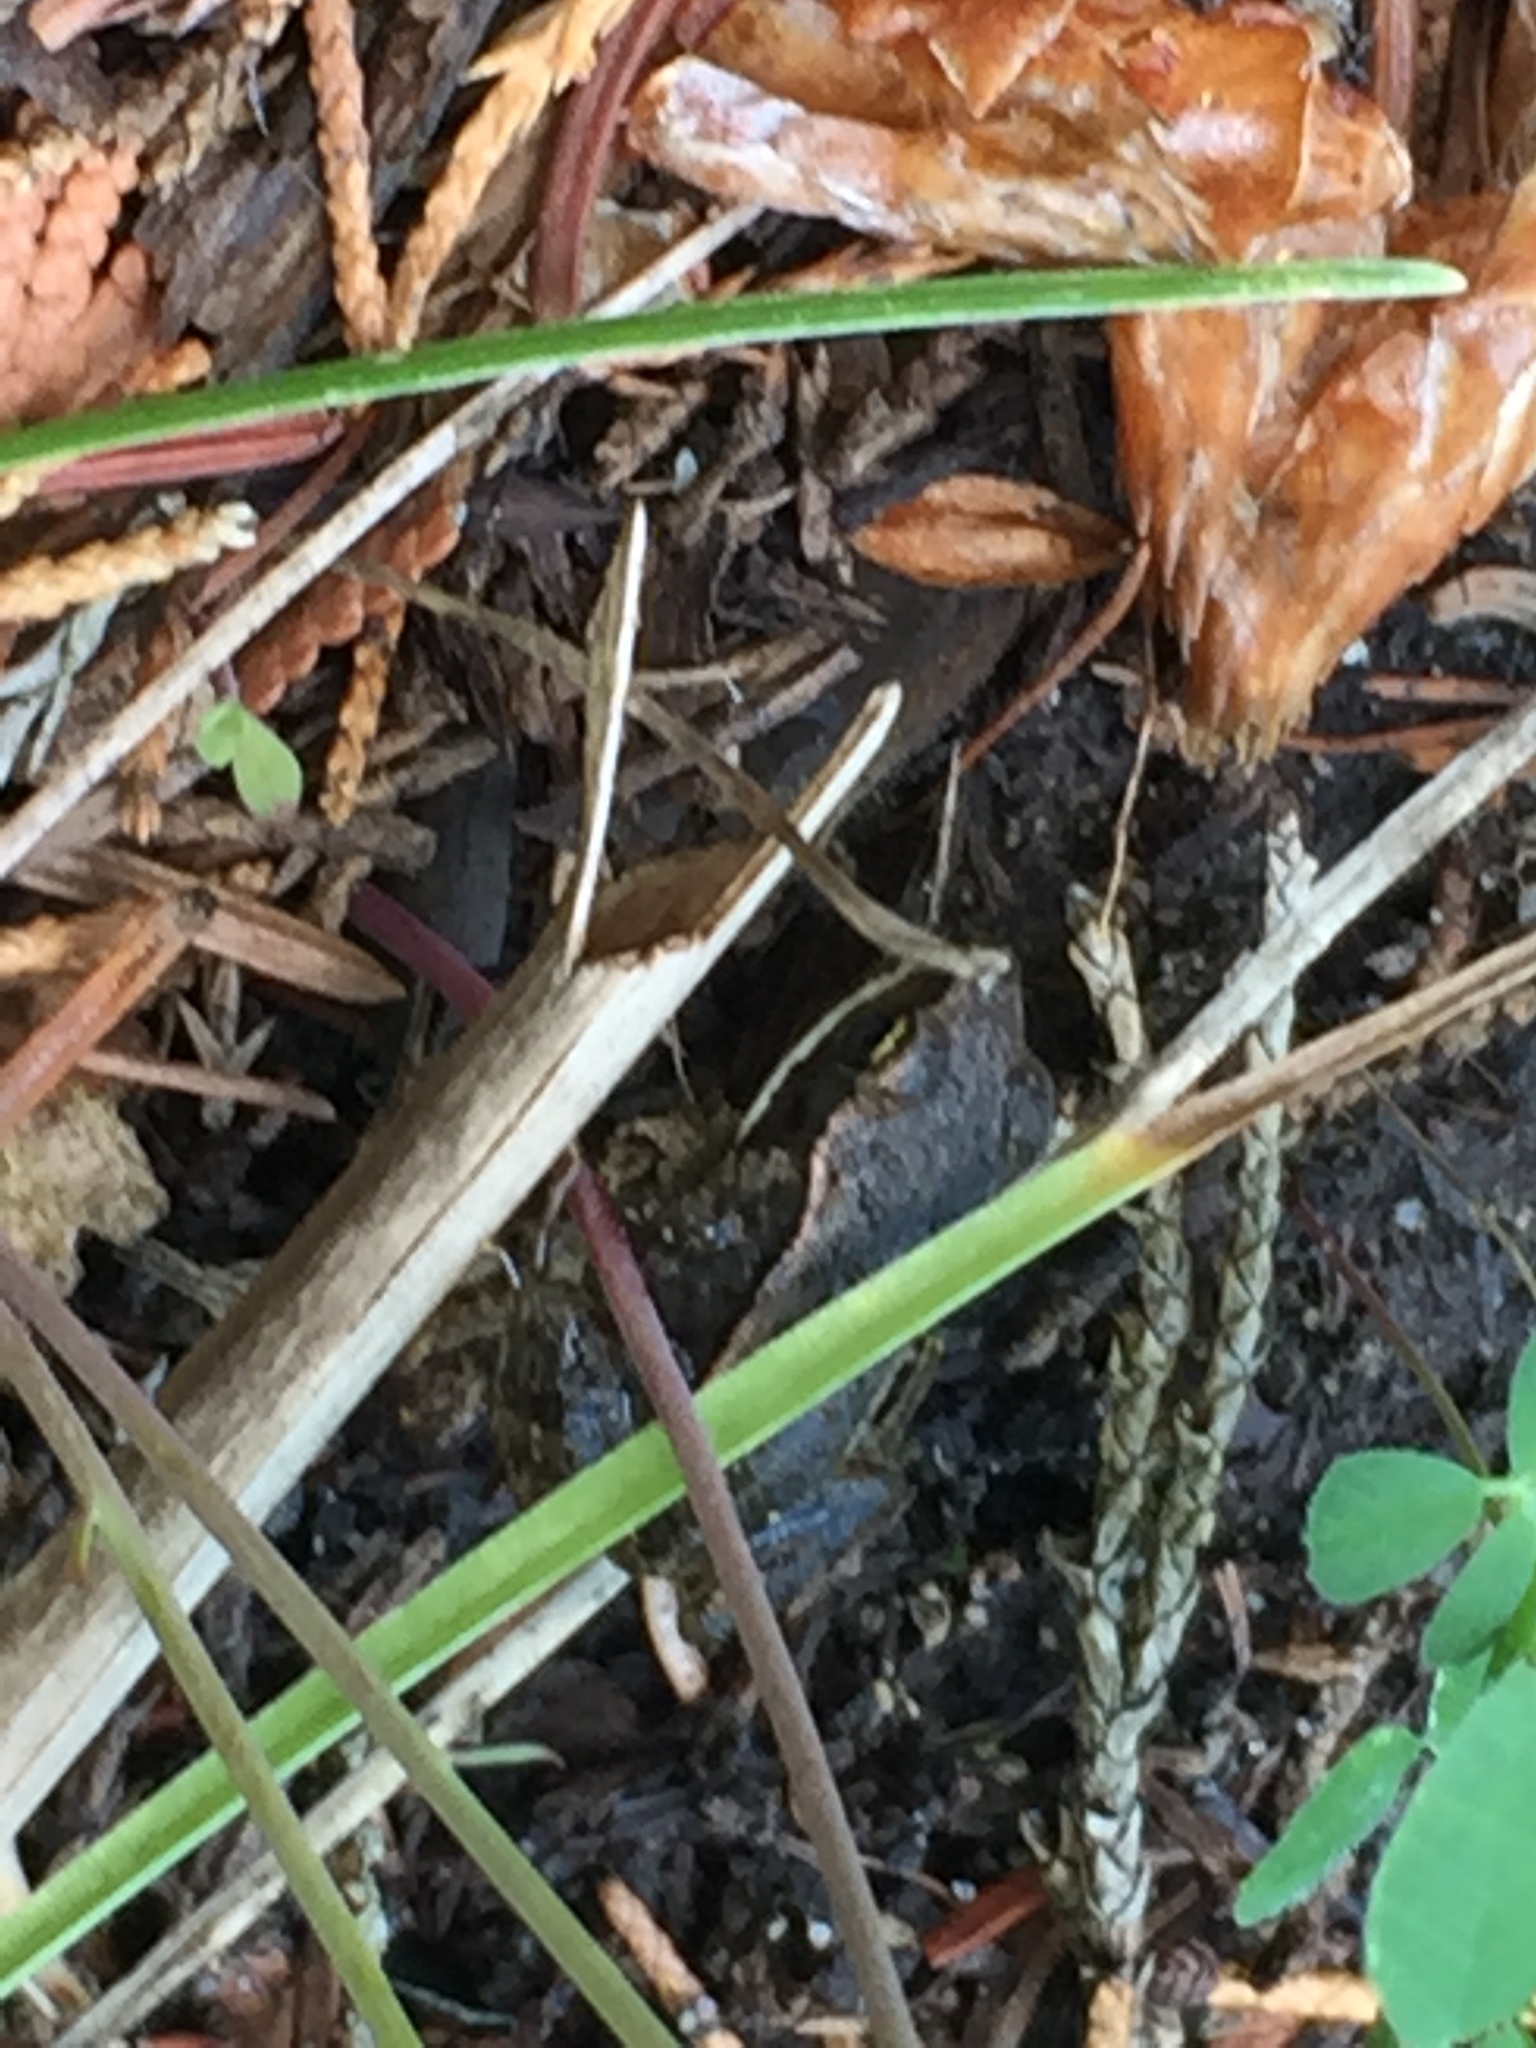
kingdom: Animalia
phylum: Chordata
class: Amphibia
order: Anura
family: Ranidae
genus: Lithobates
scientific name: Lithobates sylvaticus
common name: Wood frog
